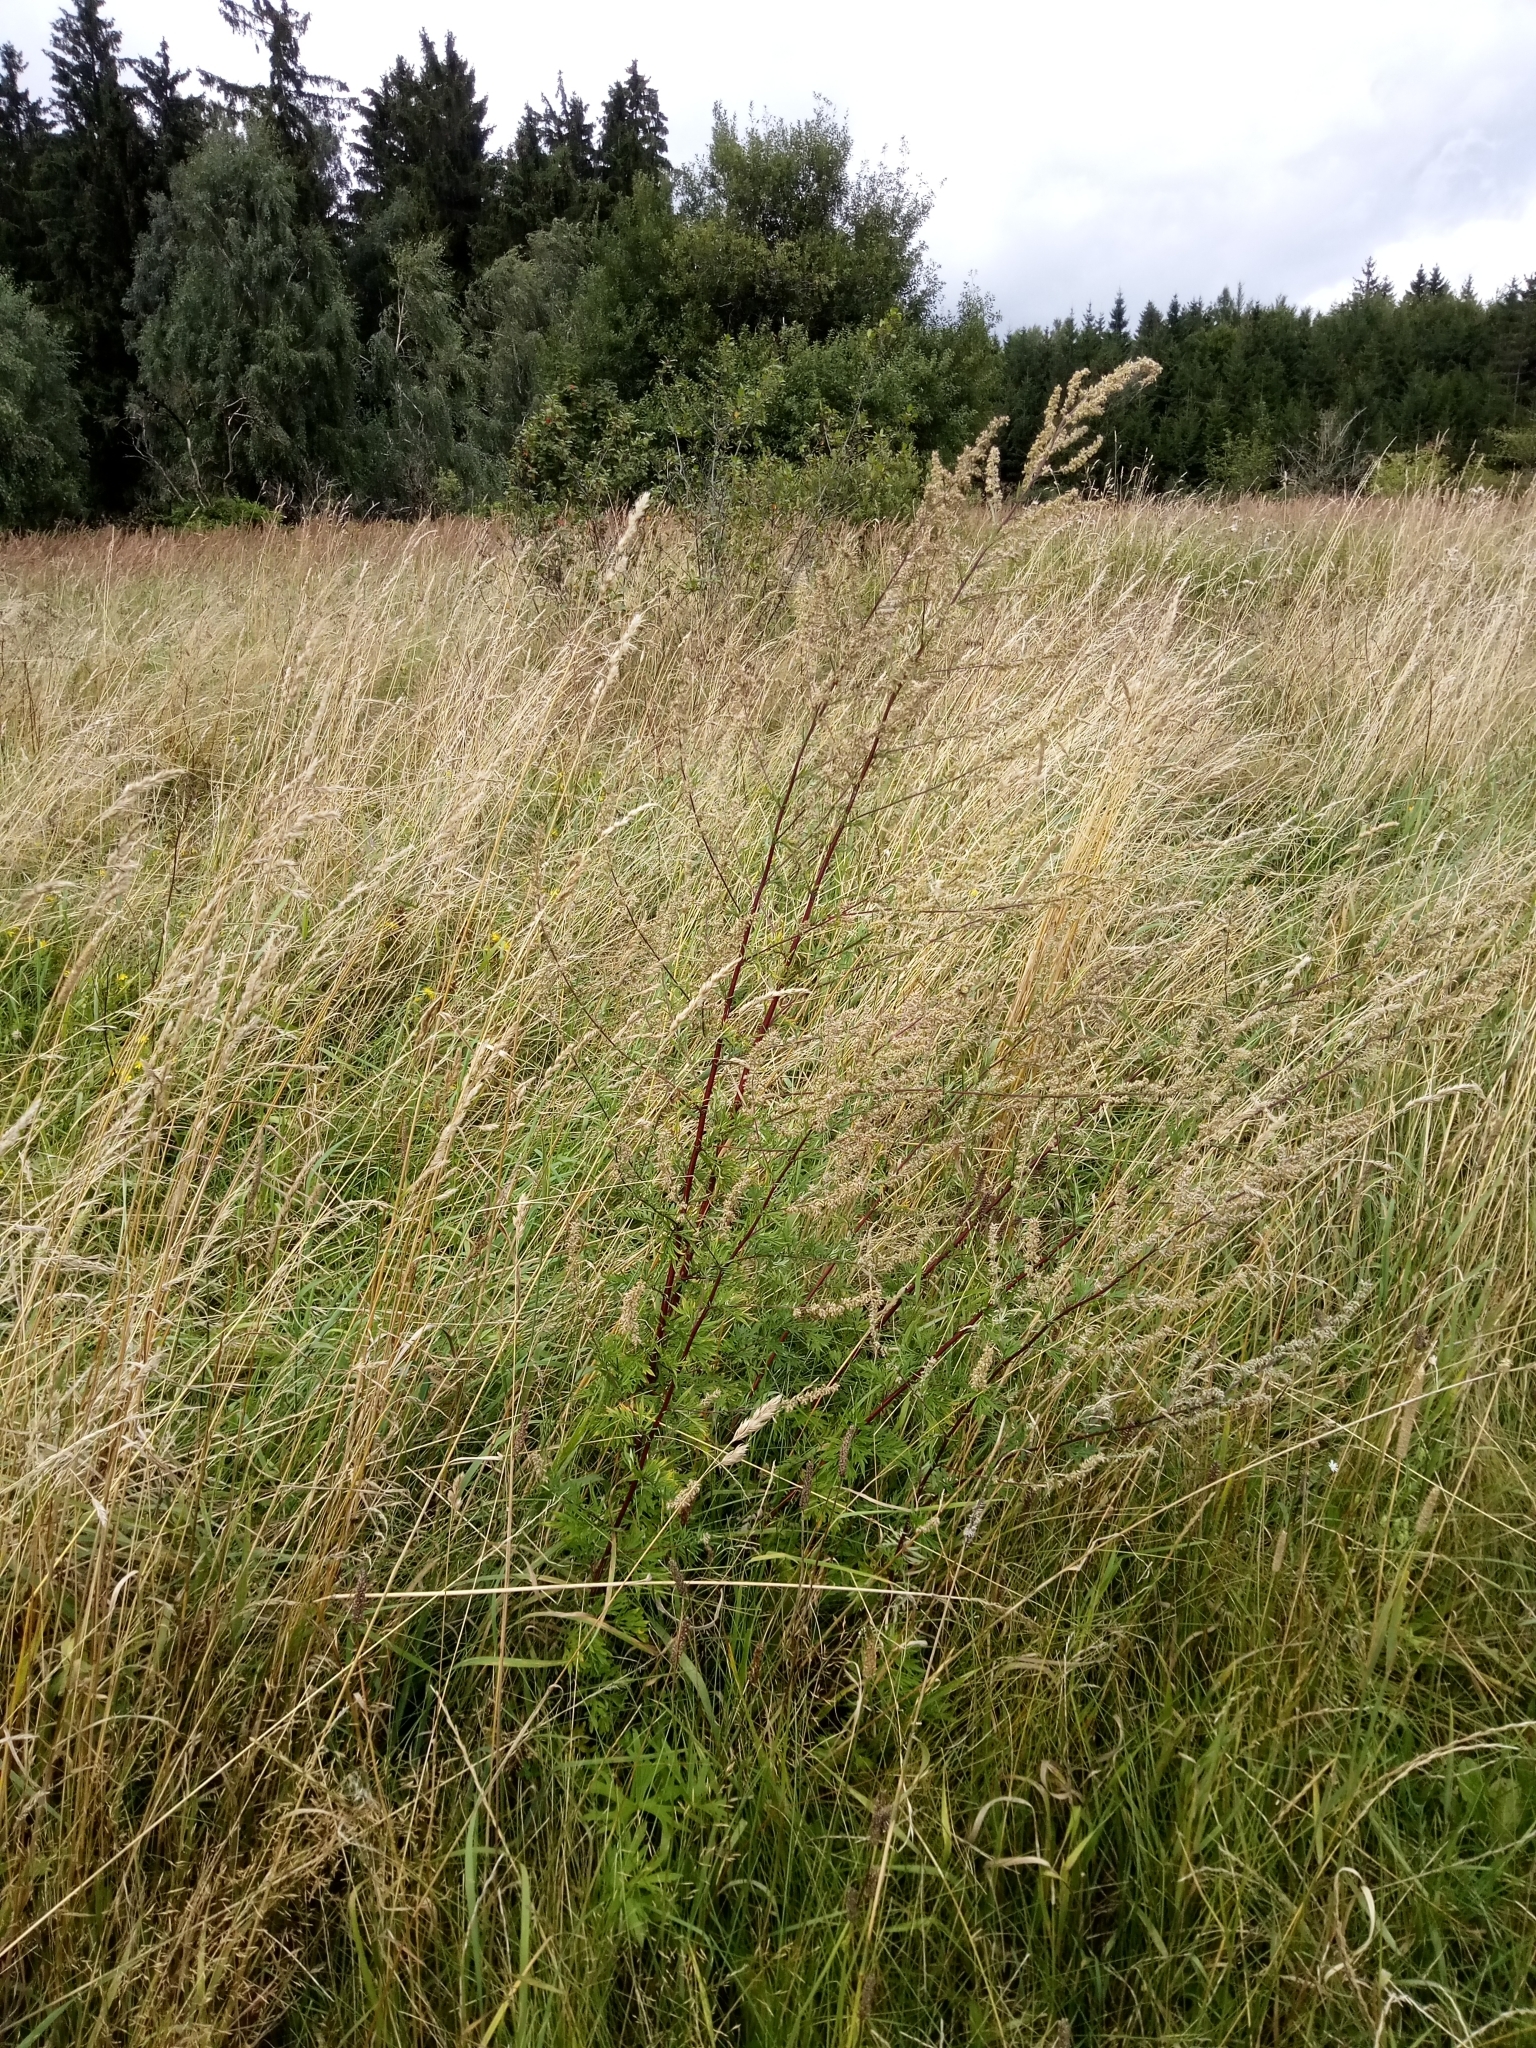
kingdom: Plantae
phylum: Tracheophyta
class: Magnoliopsida
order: Asterales
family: Asteraceae
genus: Artemisia
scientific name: Artemisia vulgaris
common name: Mugwort
